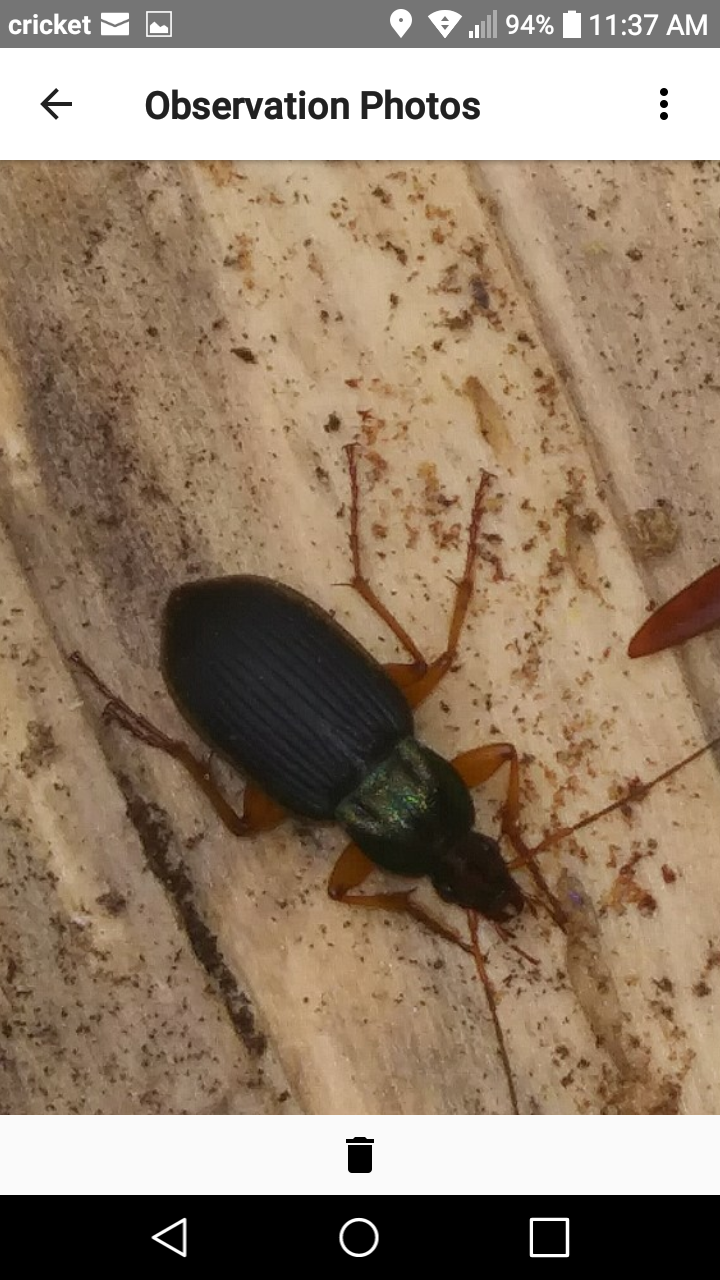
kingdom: Animalia
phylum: Arthropoda
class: Insecta
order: Coleoptera
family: Carabidae
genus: Chlaenius
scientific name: Chlaenius aestivus
